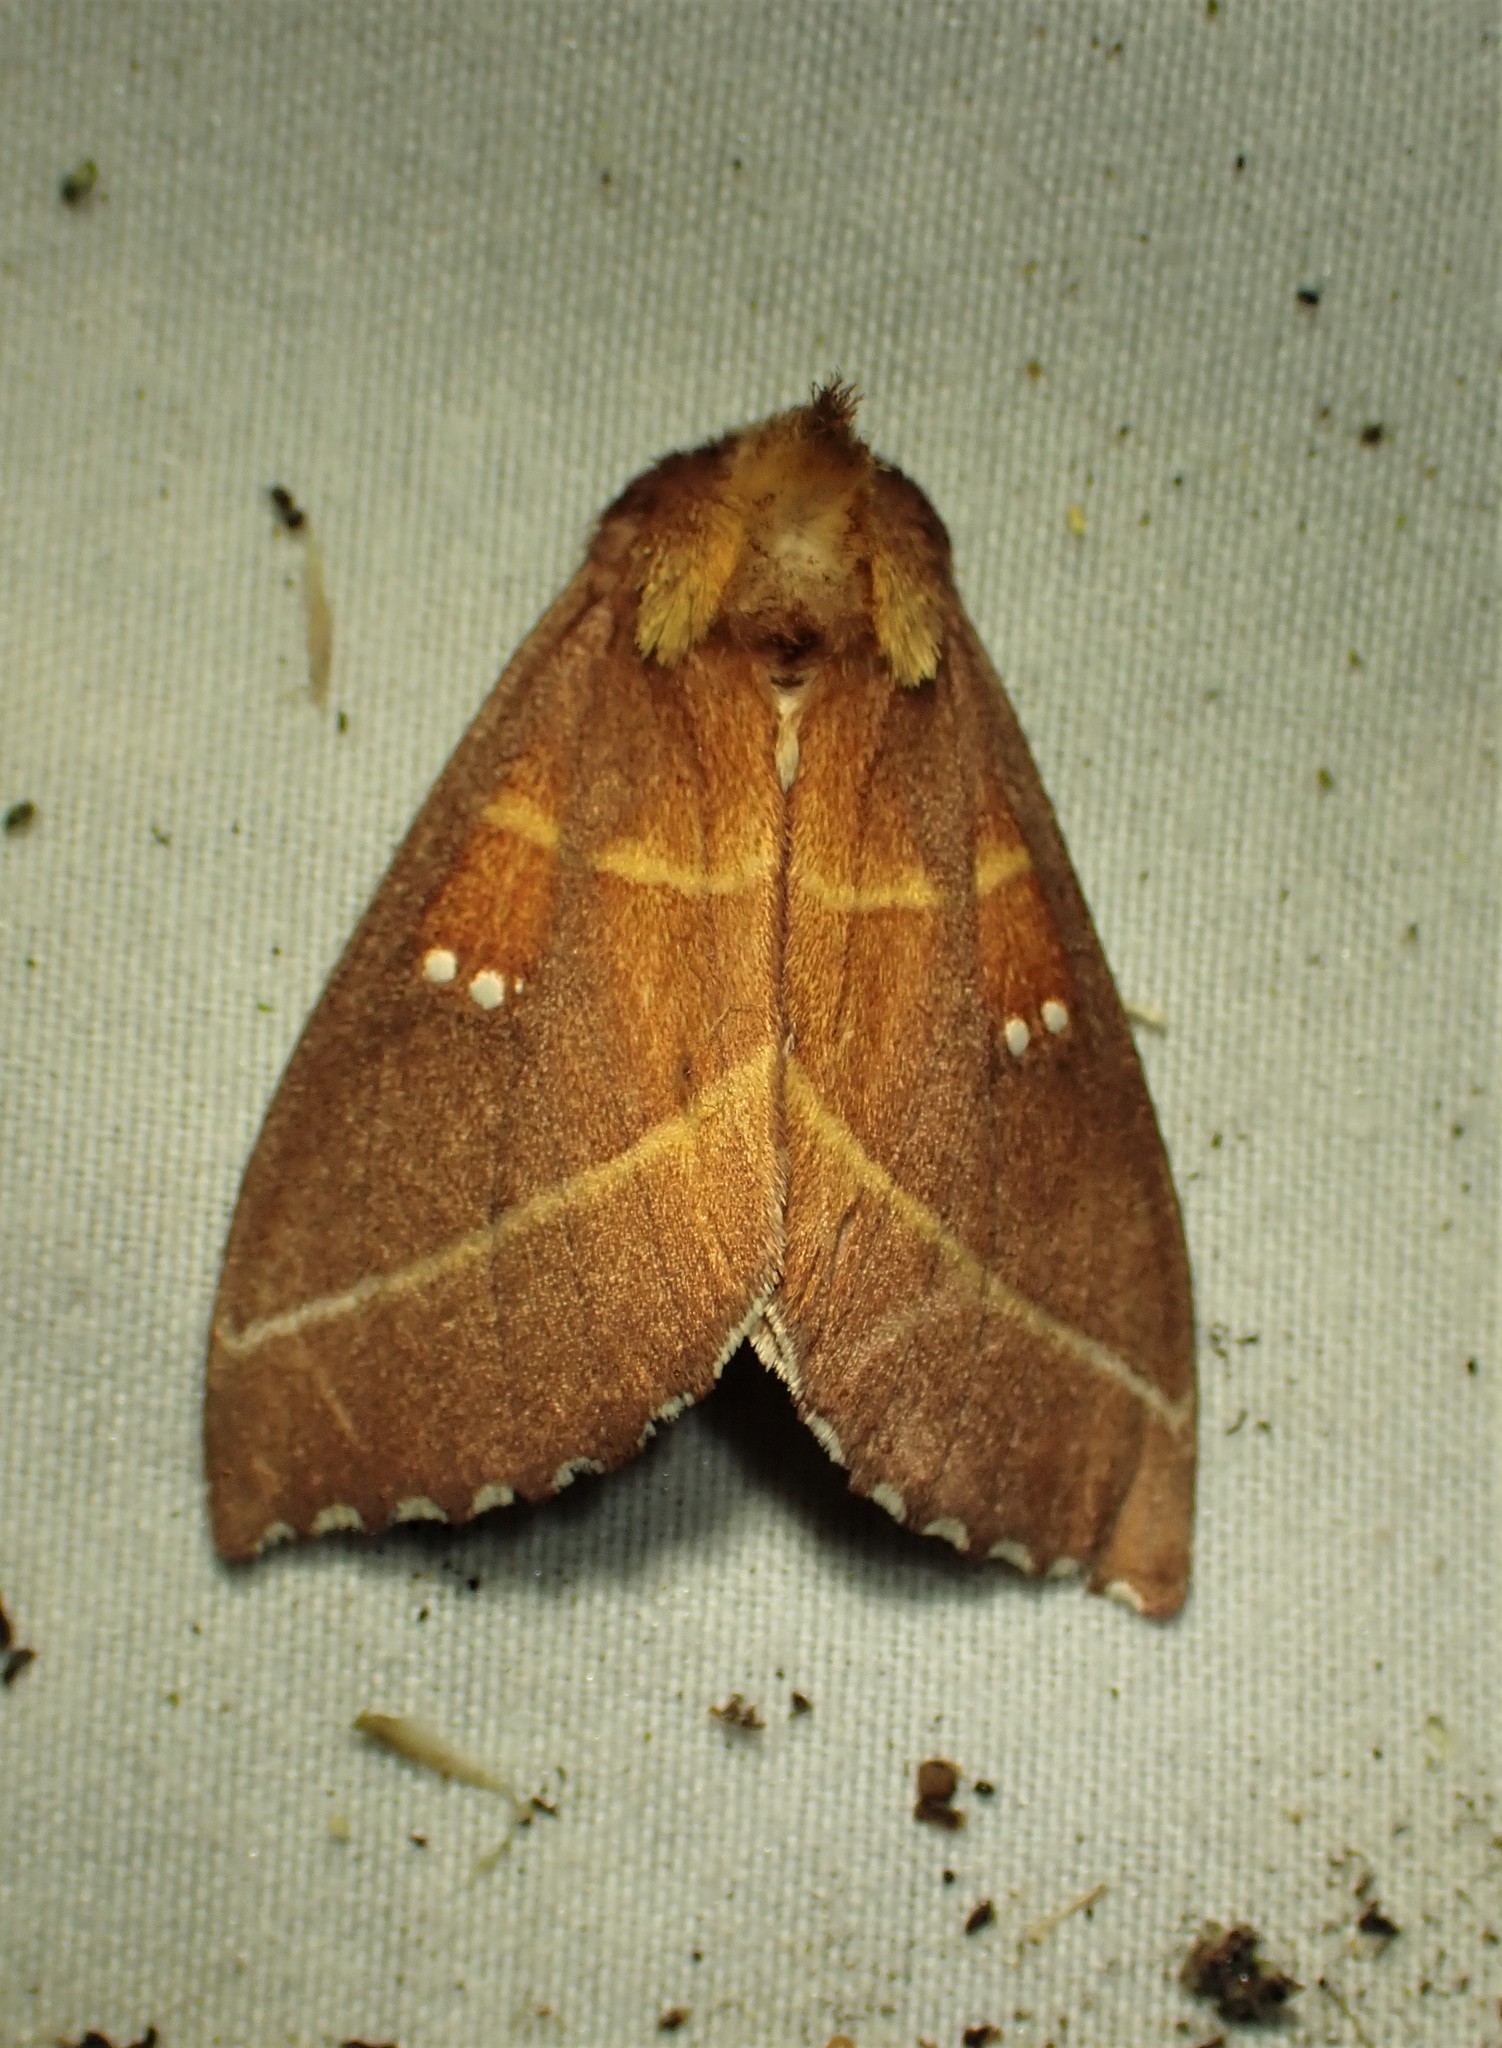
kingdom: Animalia
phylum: Arthropoda
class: Insecta
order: Lepidoptera
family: Notodontidae
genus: Nadata
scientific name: Nadata gibbosa
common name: White-dotted prominent
